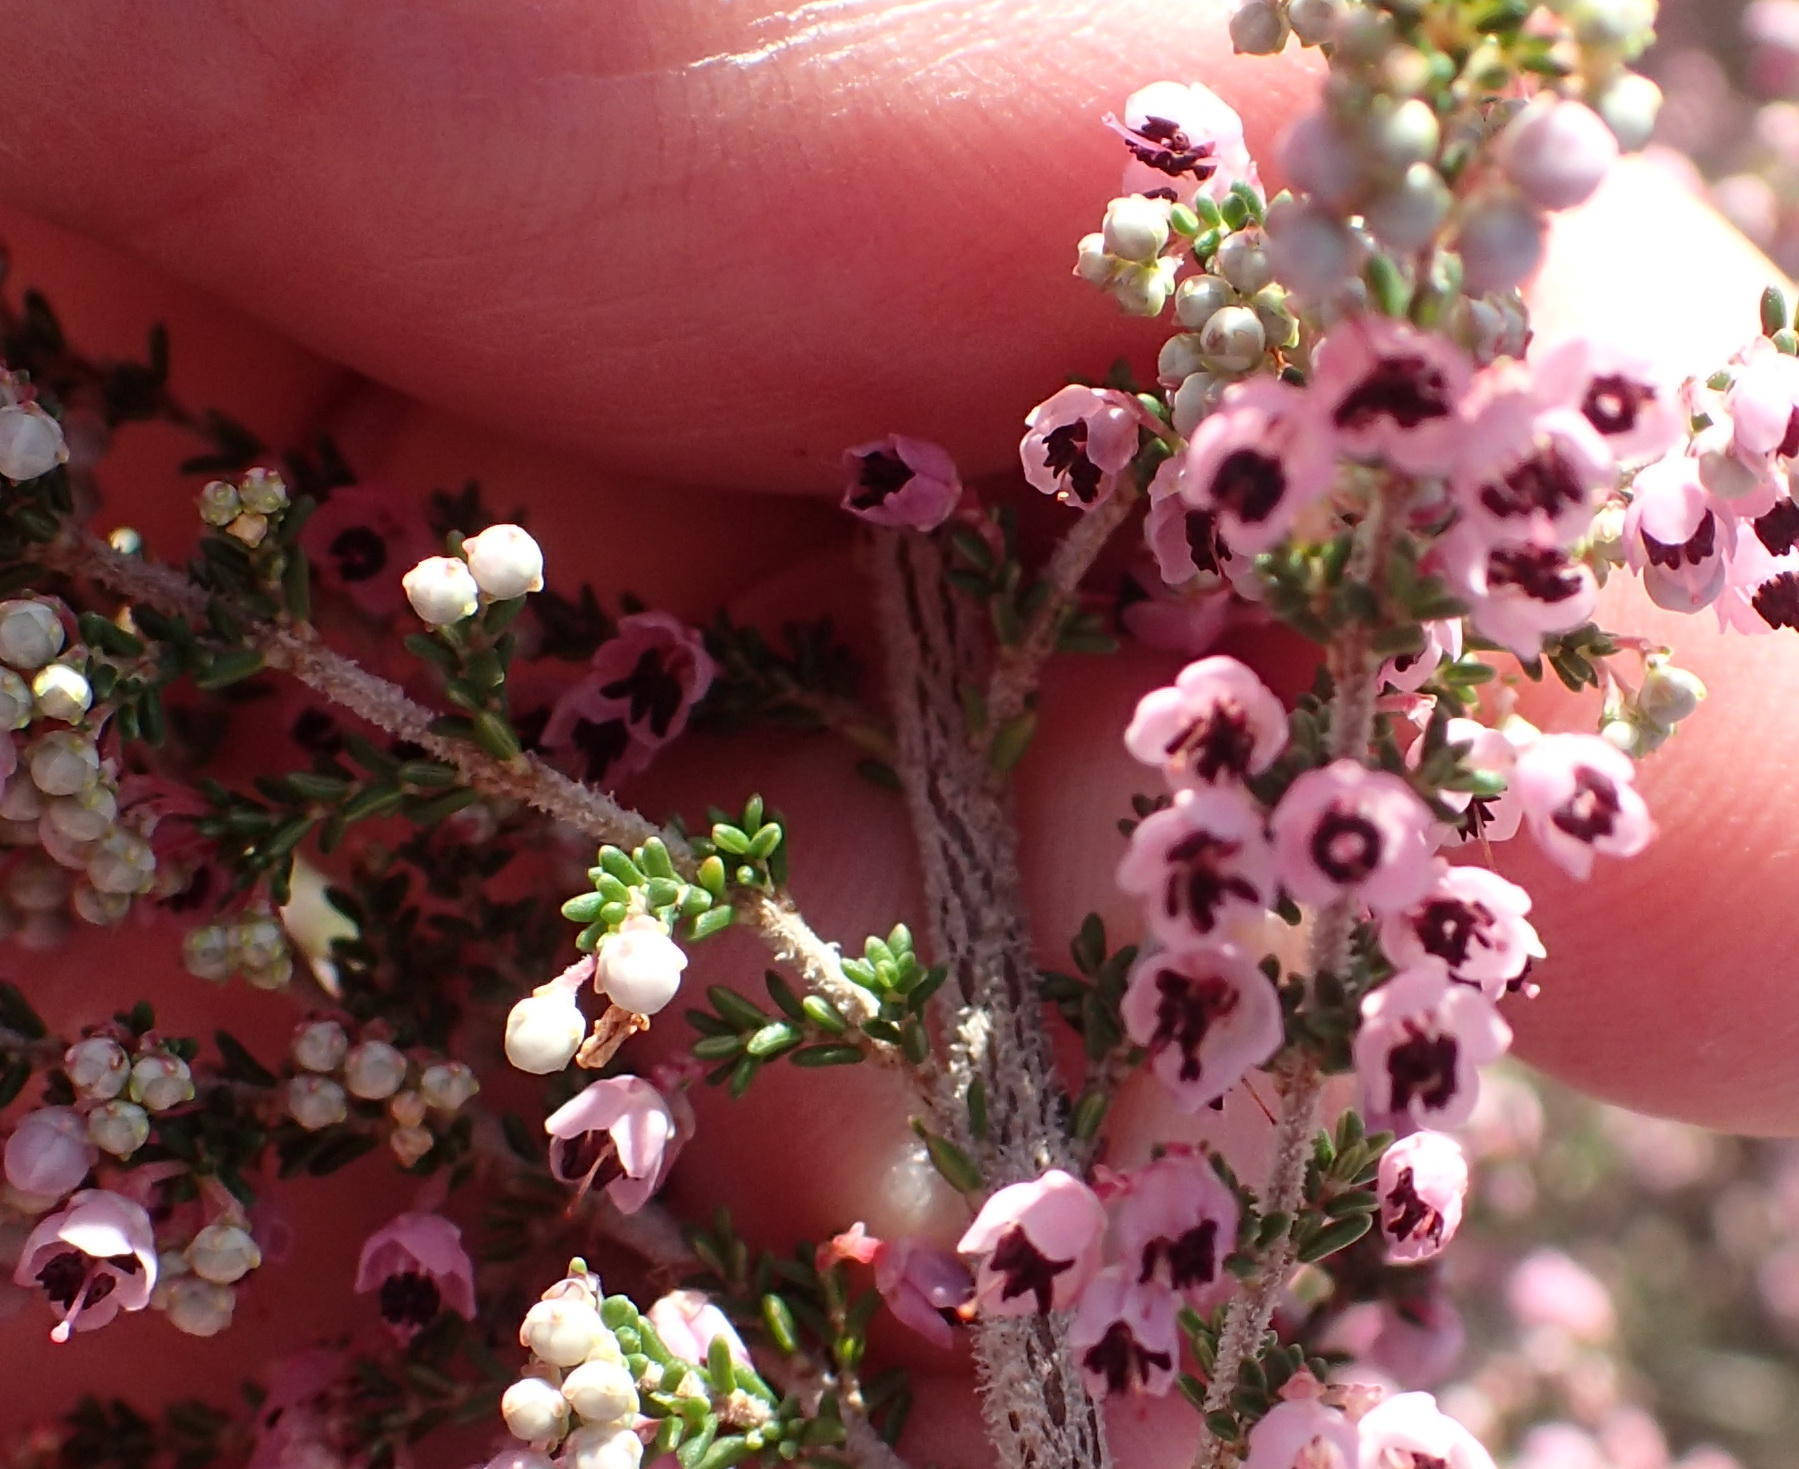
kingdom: Plantae
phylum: Tracheophyta
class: Magnoliopsida
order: Ericales
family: Ericaceae
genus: Erica
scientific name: Erica sparsa
